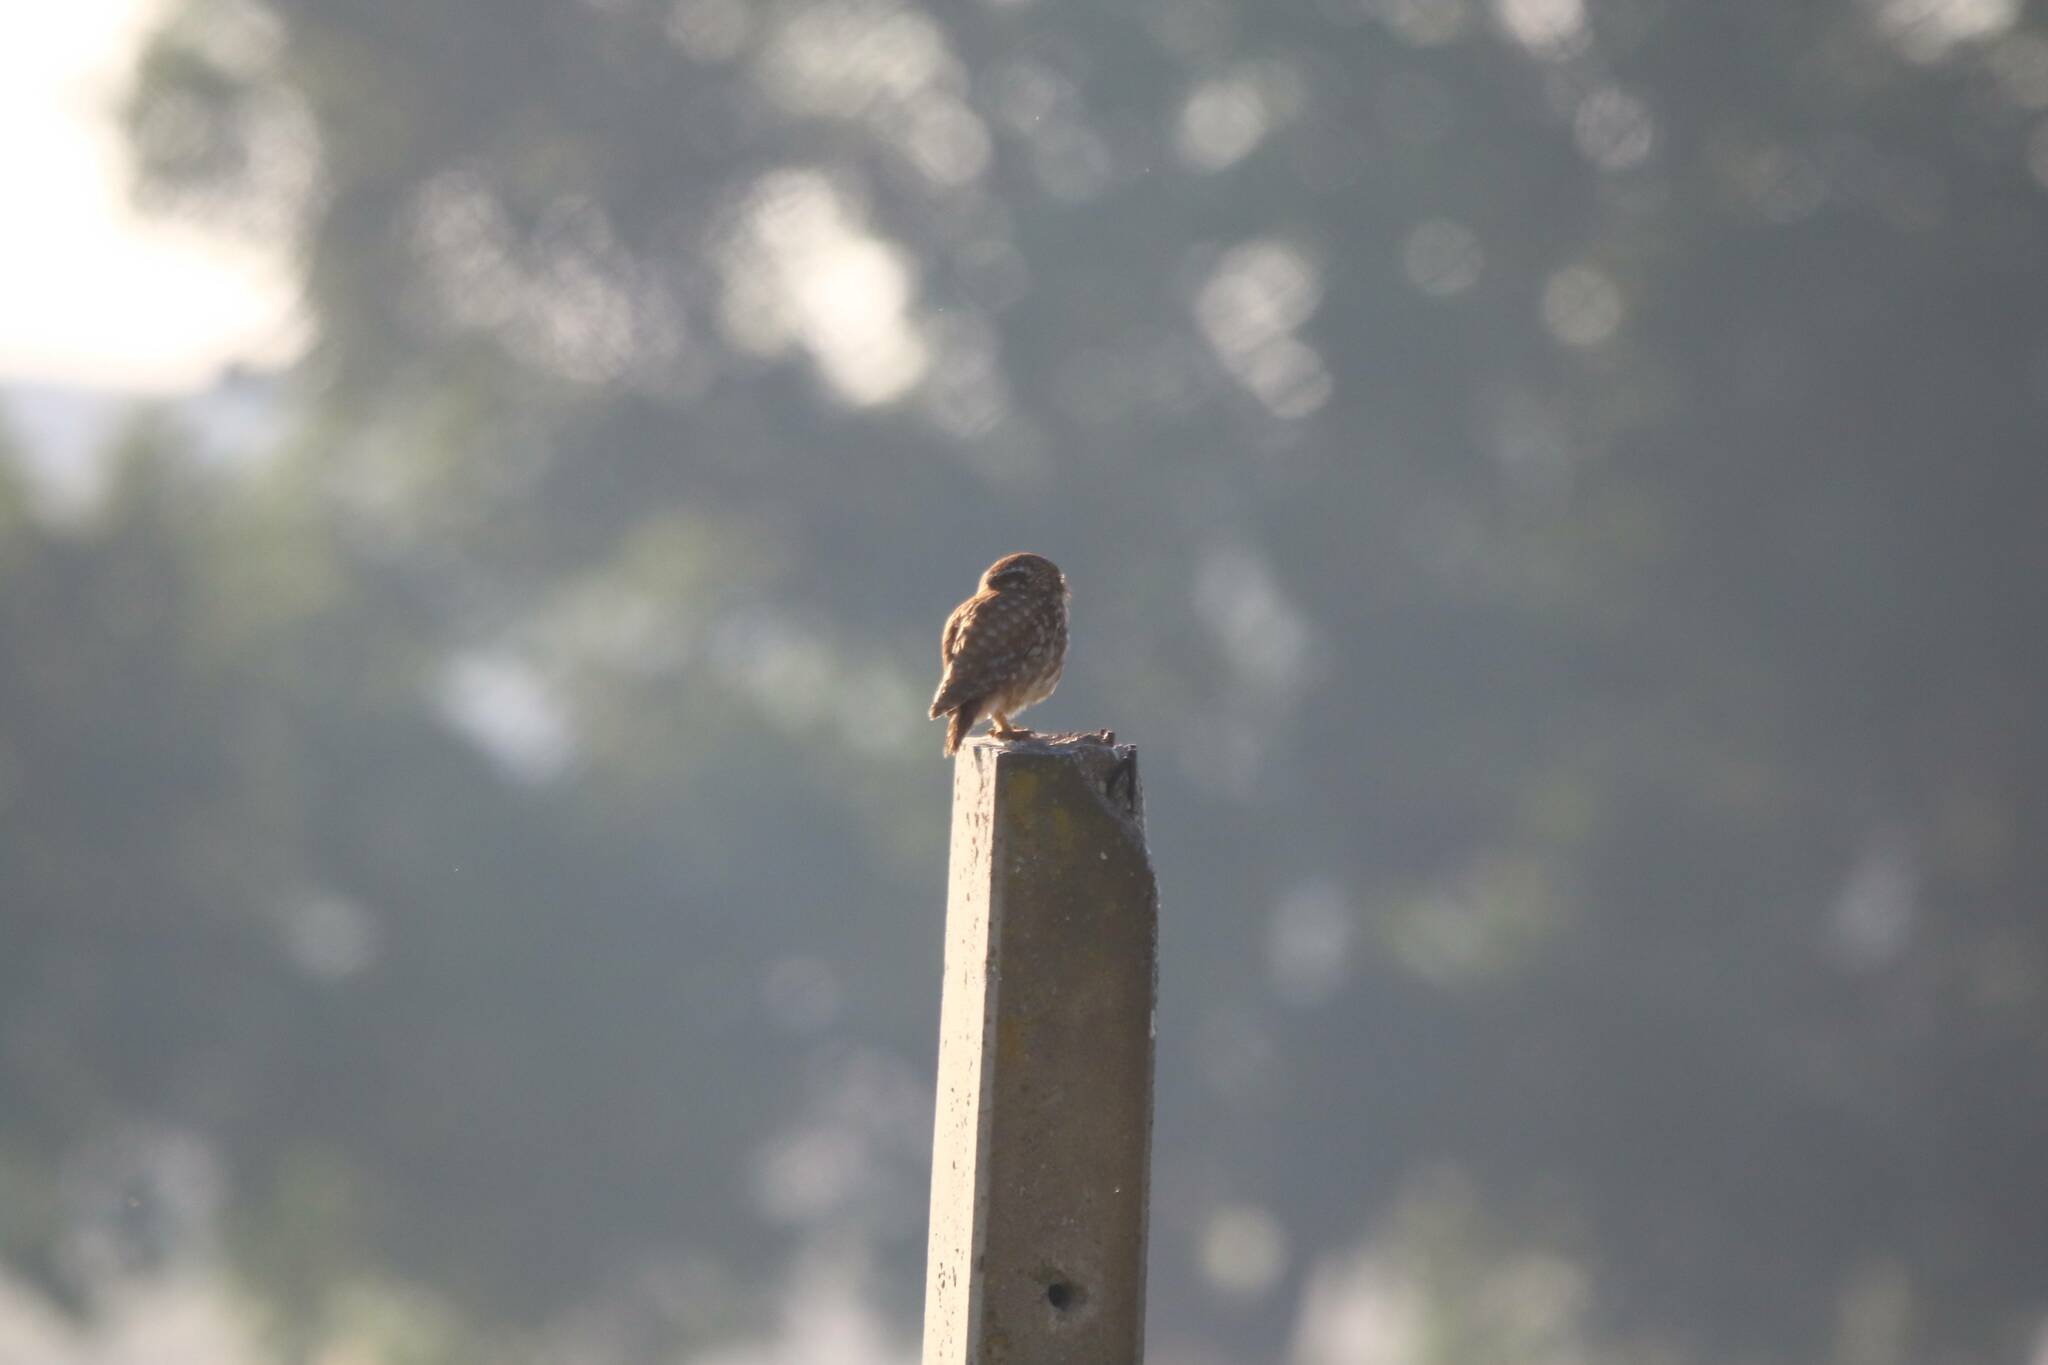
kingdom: Animalia
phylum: Chordata
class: Aves
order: Strigiformes
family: Strigidae
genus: Athene
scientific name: Athene noctua
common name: Little owl
